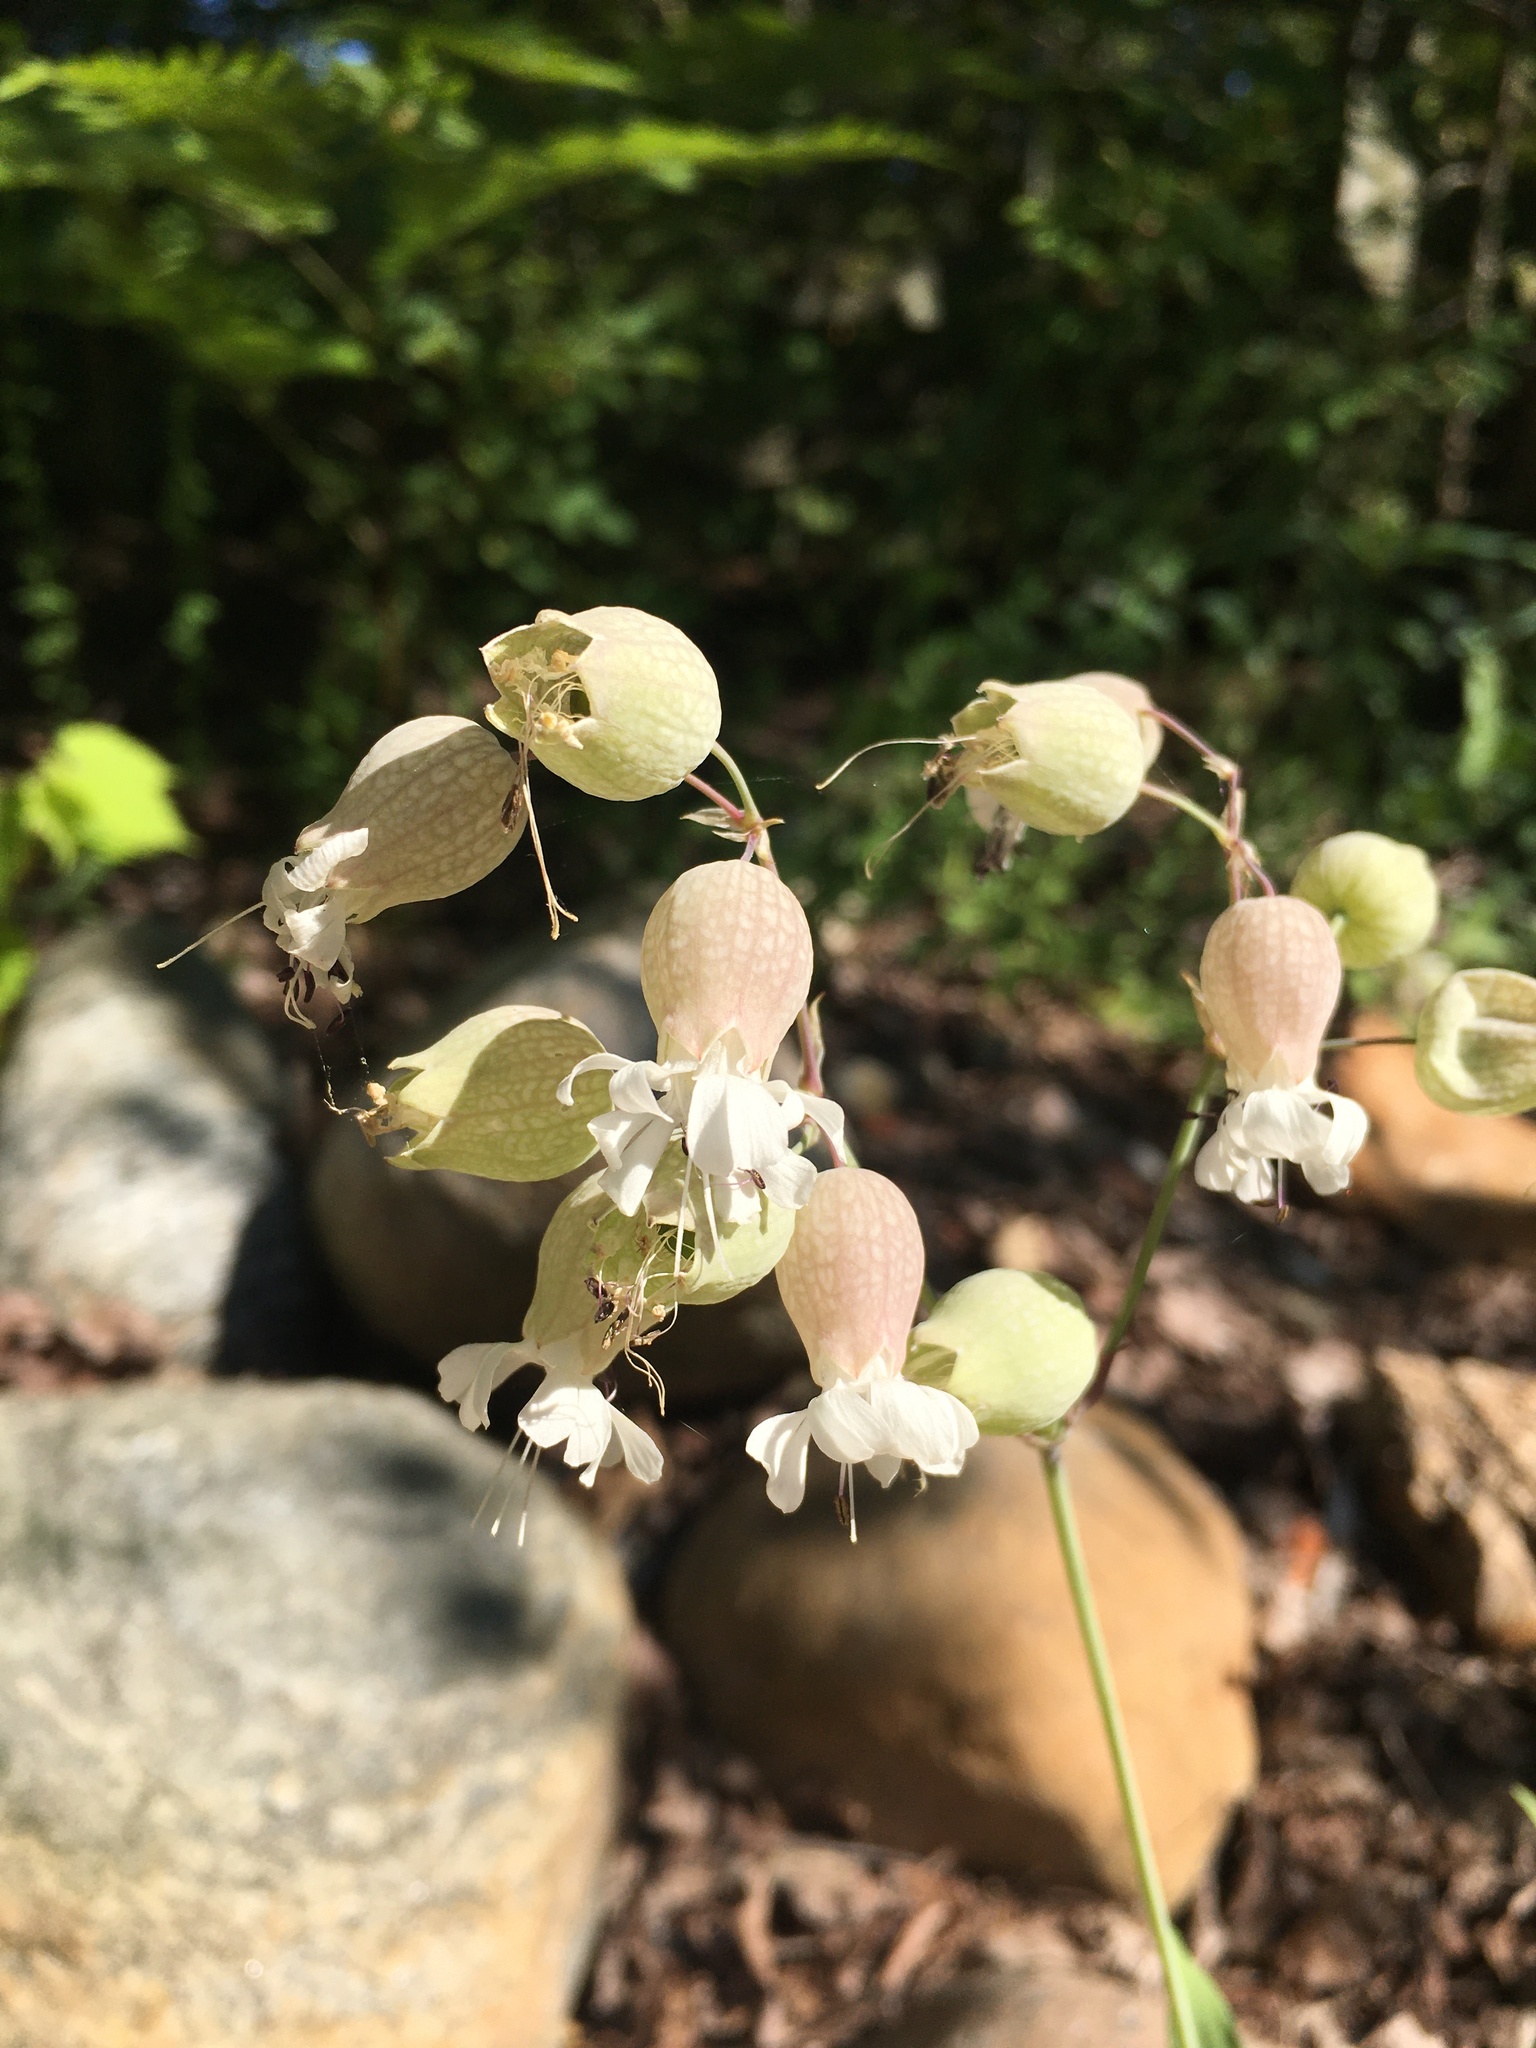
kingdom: Plantae
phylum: Tracheophyta
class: Magnoliopsida
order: Caryophyllales
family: Caryophyllaceae
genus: Silene
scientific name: Silene vulgaris
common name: Bladder campion
